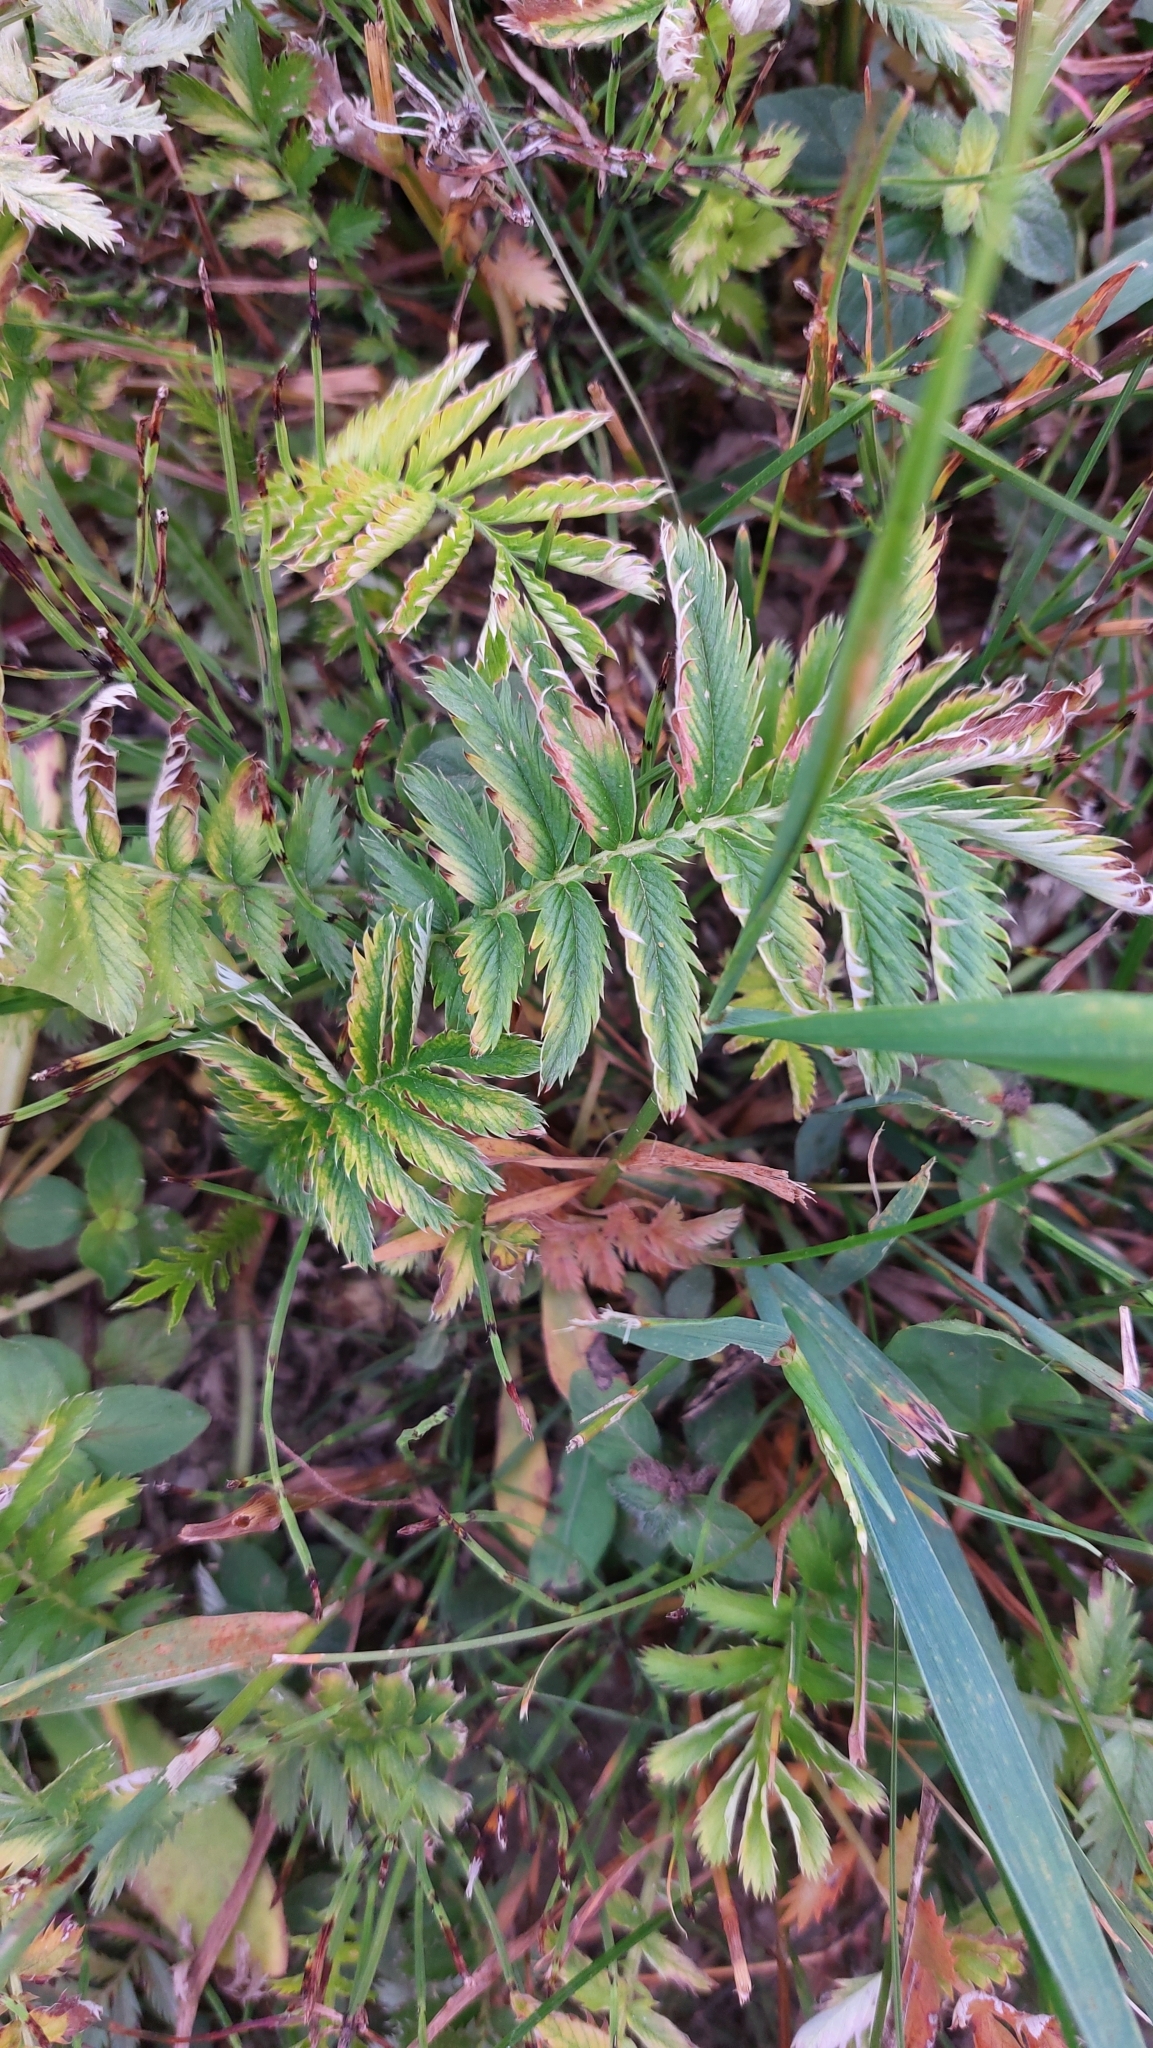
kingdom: Plantae
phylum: Tracheophyta
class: Magnoliopsida
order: Rosales
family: Rosaceae
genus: Argentina
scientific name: Argentina anserina
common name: Common silverweed
